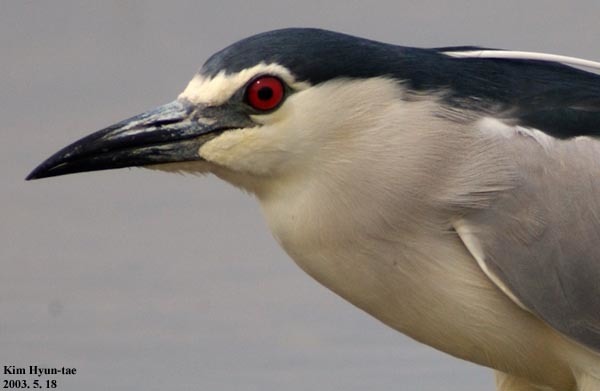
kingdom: Animalia
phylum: Chordata
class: Aves
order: Pelecaniformes
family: Ardeidae
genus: Nycticorax
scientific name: Nycticorax nycticorax
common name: Black-crowned night heron
